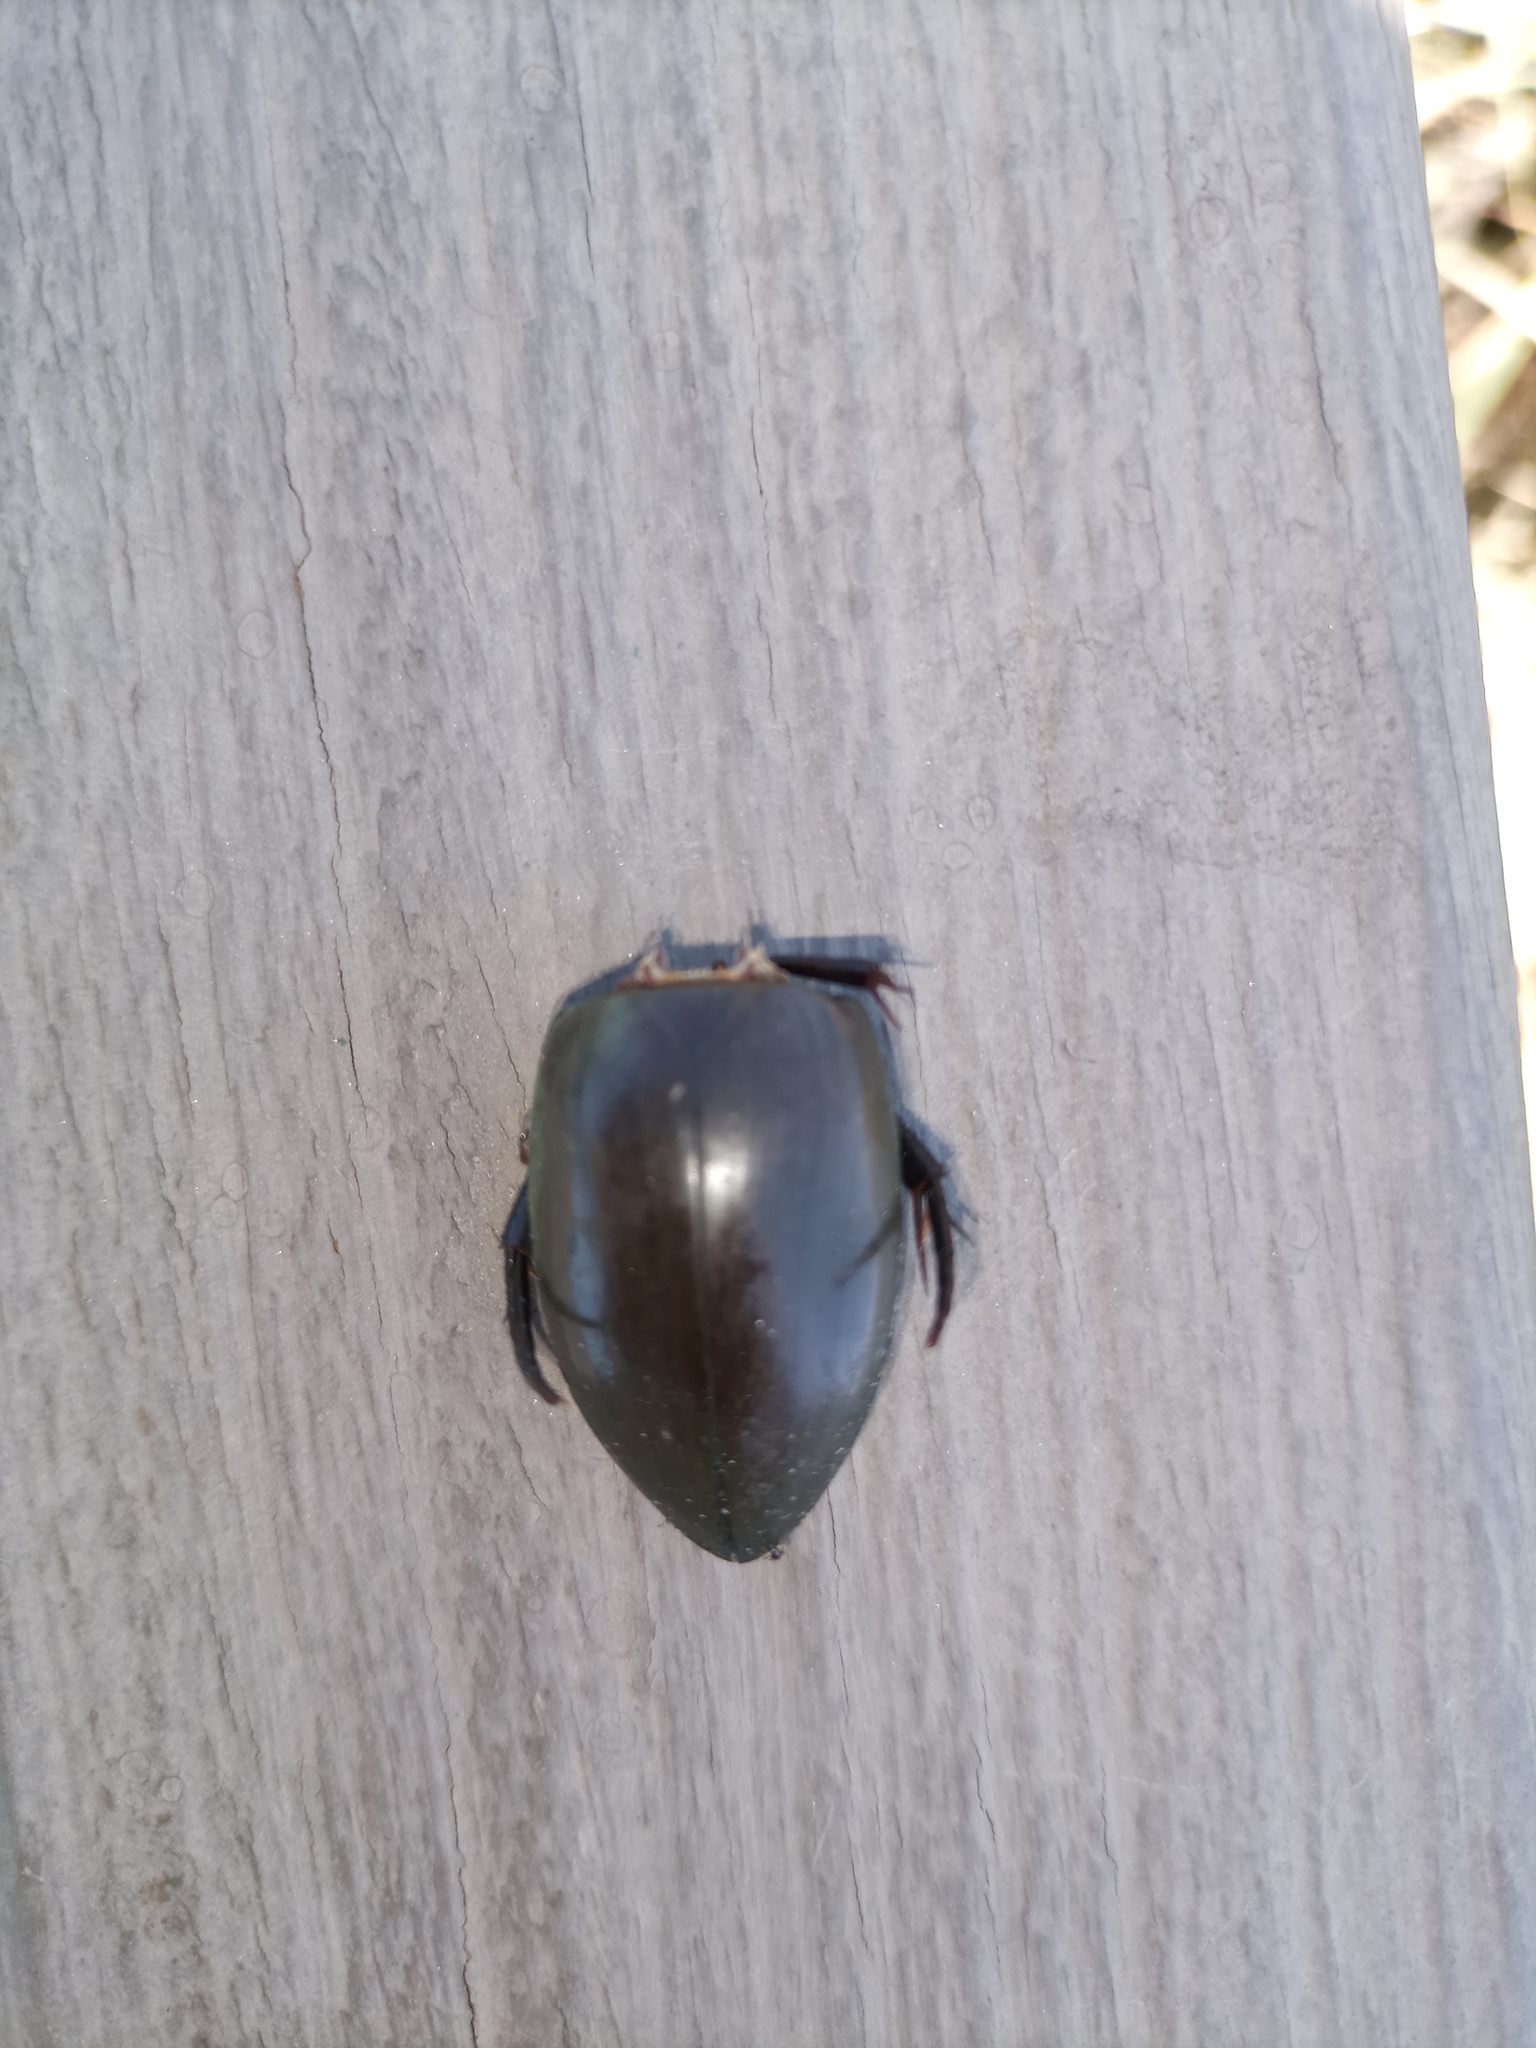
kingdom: Animalia
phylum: Arthropoda
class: Insecta
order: Coleoptera
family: Hydrophilidae
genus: Hydrophilus
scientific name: Hydrophilus
